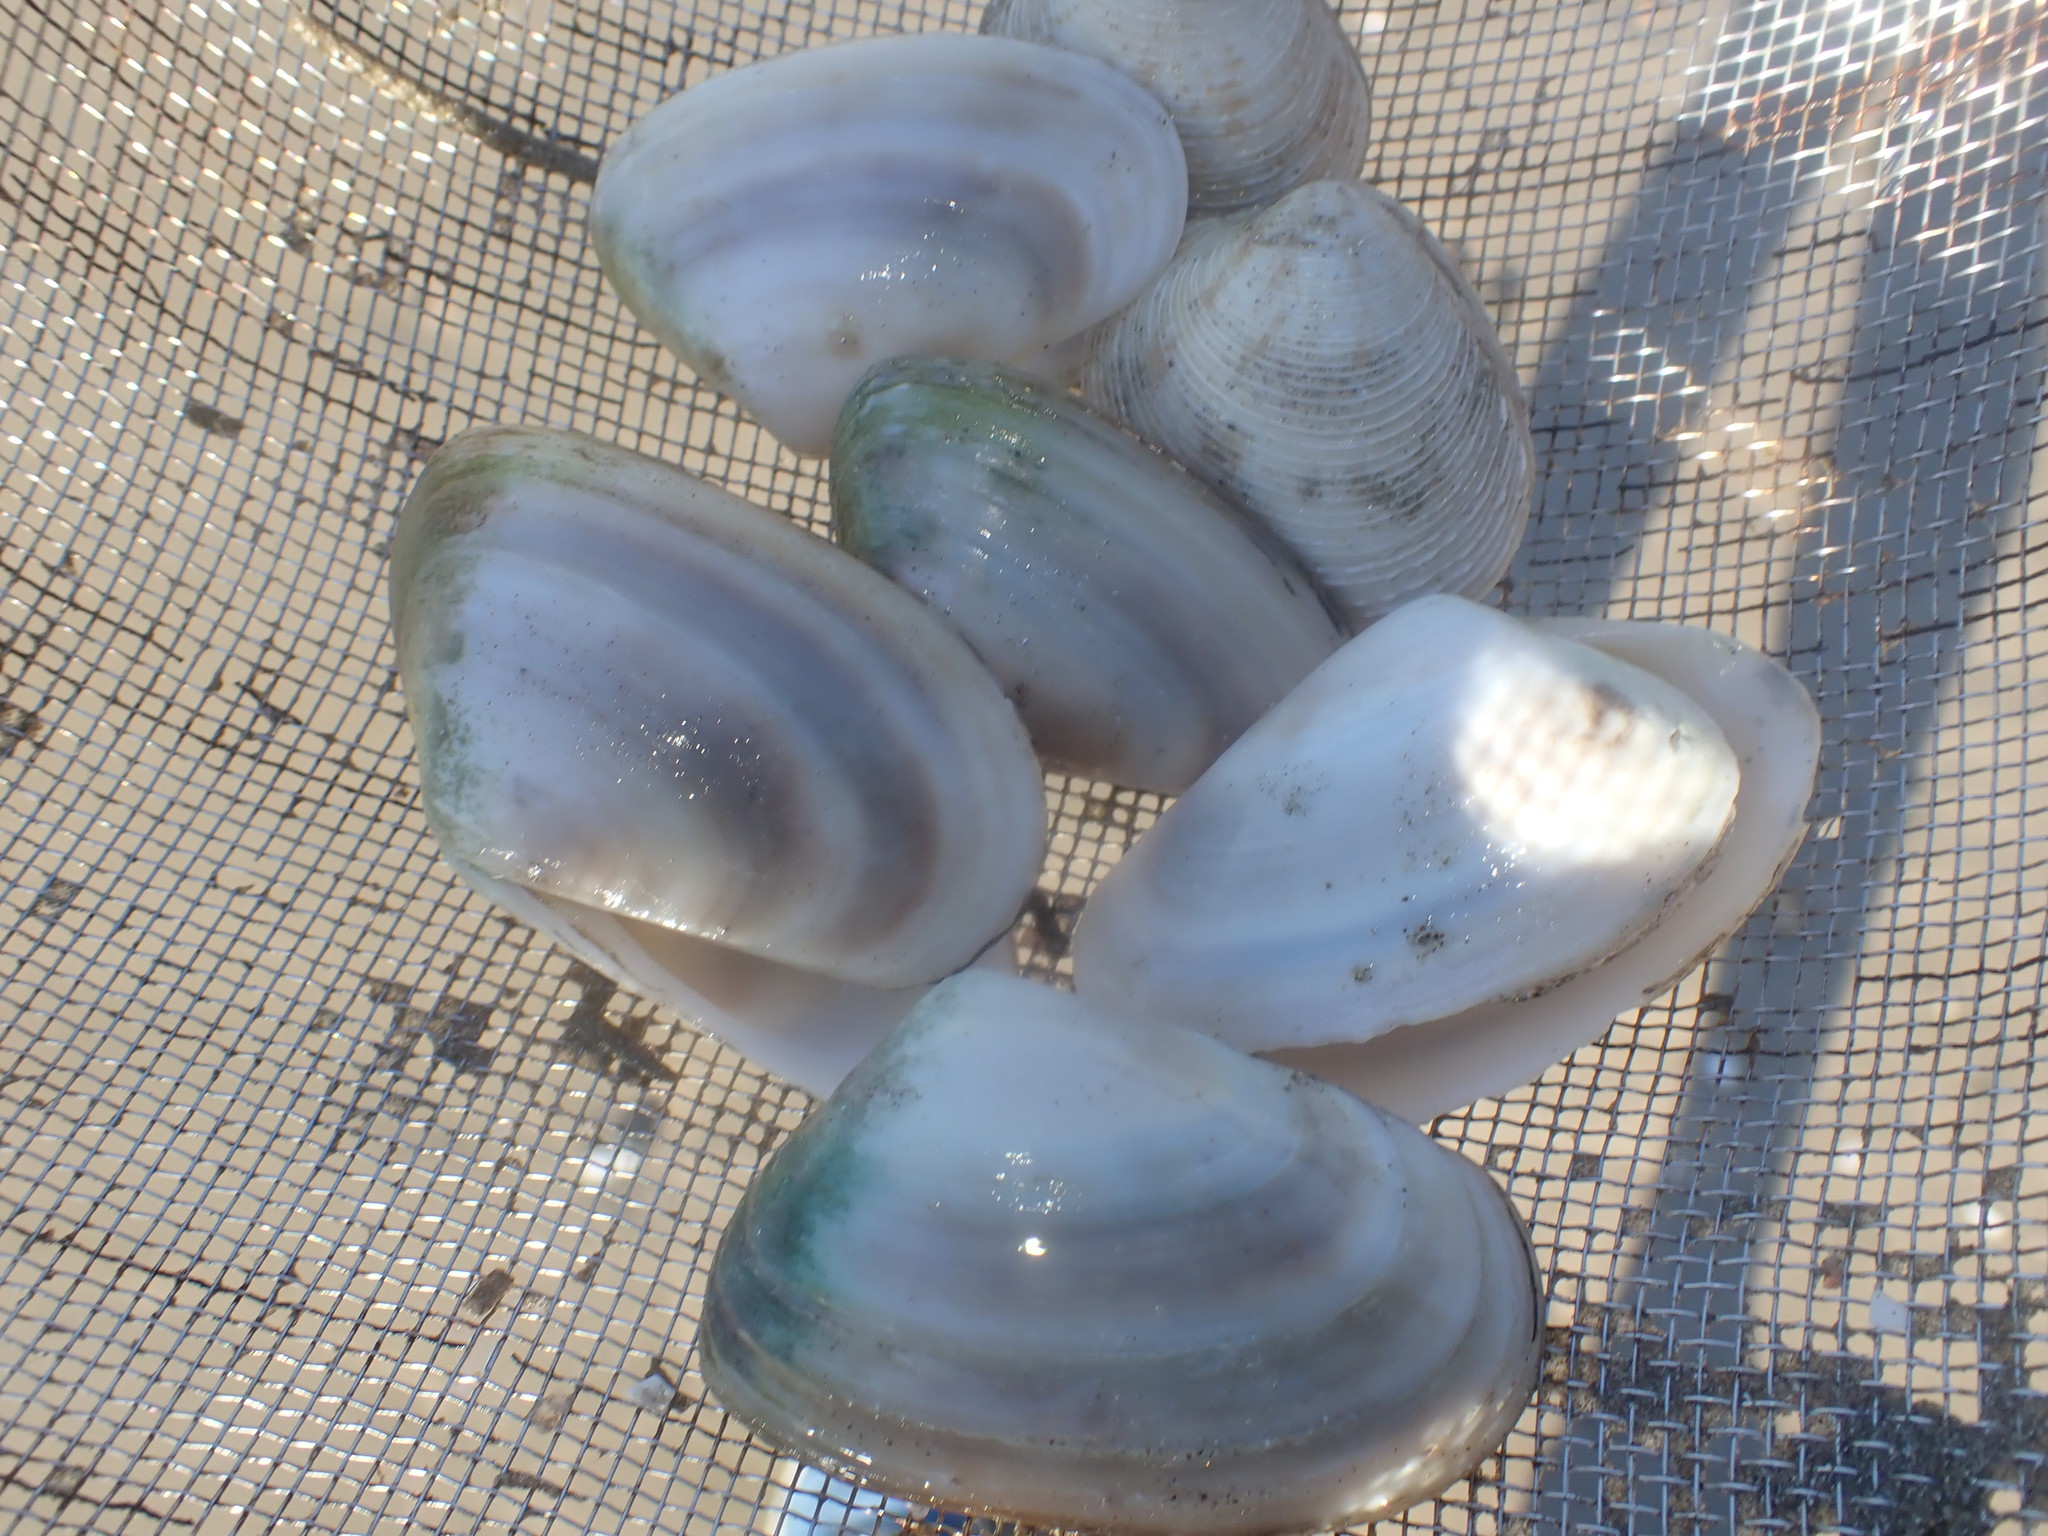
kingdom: Animalia
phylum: Mollusca
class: Bivalvia
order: Venerida
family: Veneridae
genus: Dosina
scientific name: Dosina mactracea
